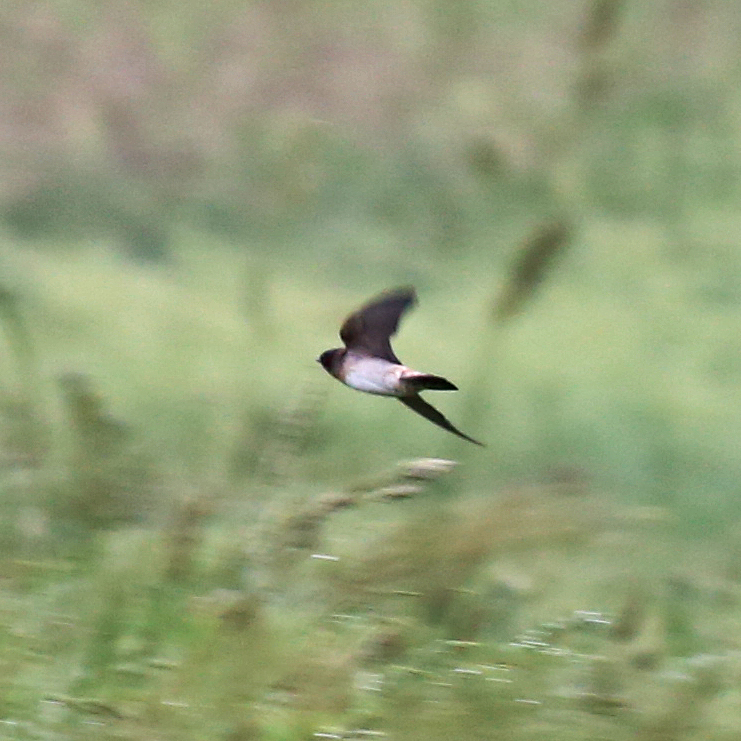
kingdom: Animalia
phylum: Chordata
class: Aves
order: Passeriformes
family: Hirundinidae
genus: Petrochelidon
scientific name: Petrochelidon pyrrhonota
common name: American cliff swallow
